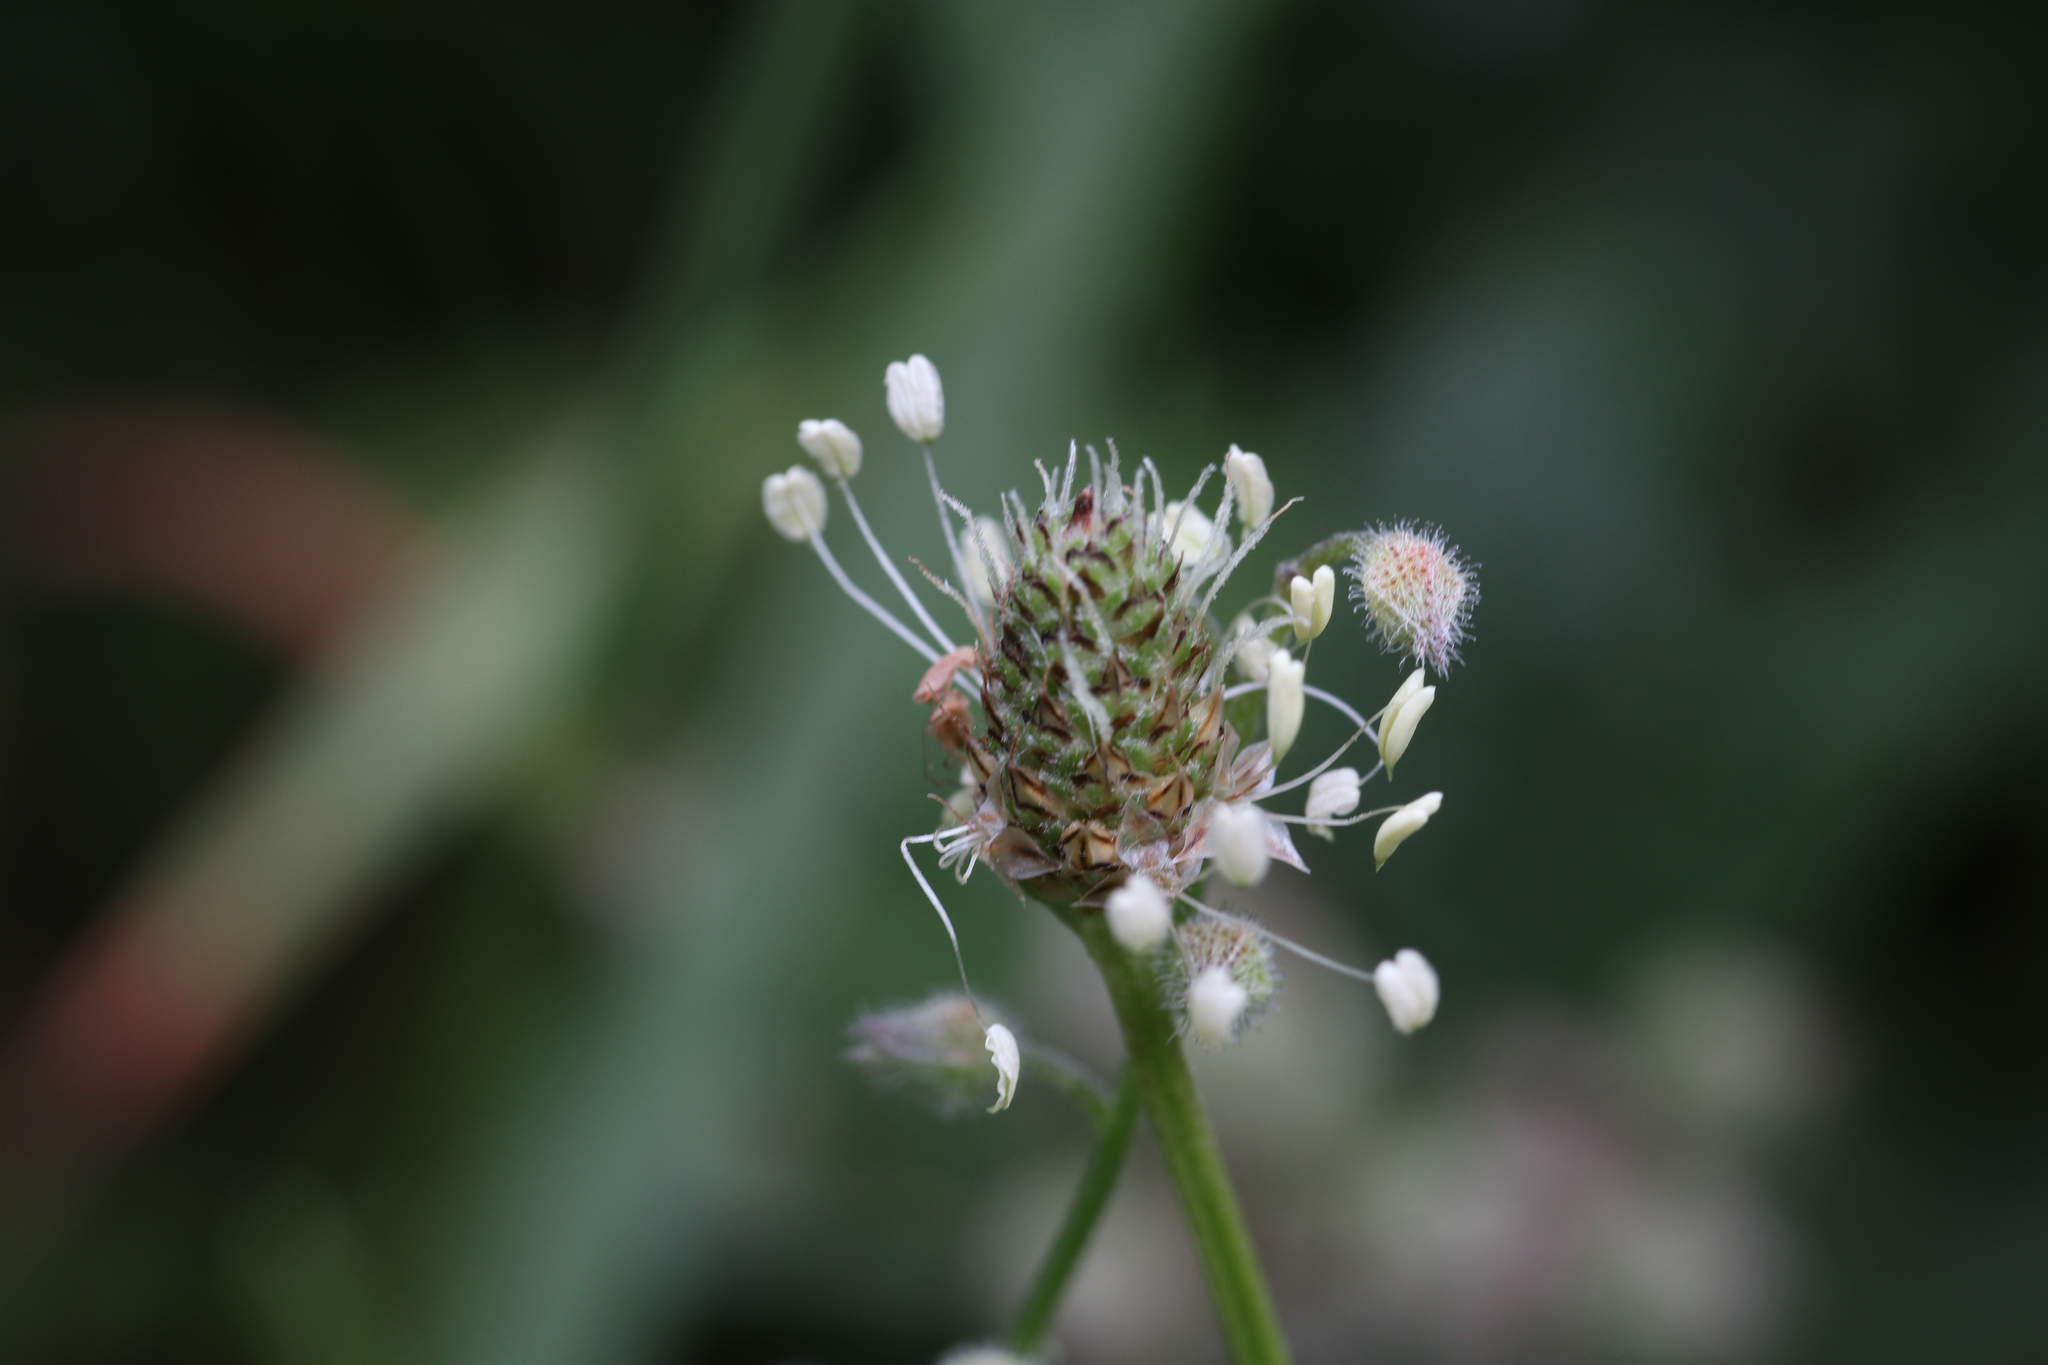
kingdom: Plantae
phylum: Tracheophyta
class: Magnoliopsida
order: Lamiales
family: Plantaginaceae
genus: Plantago
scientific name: Plantago lanceolata
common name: Ribwort plantain
